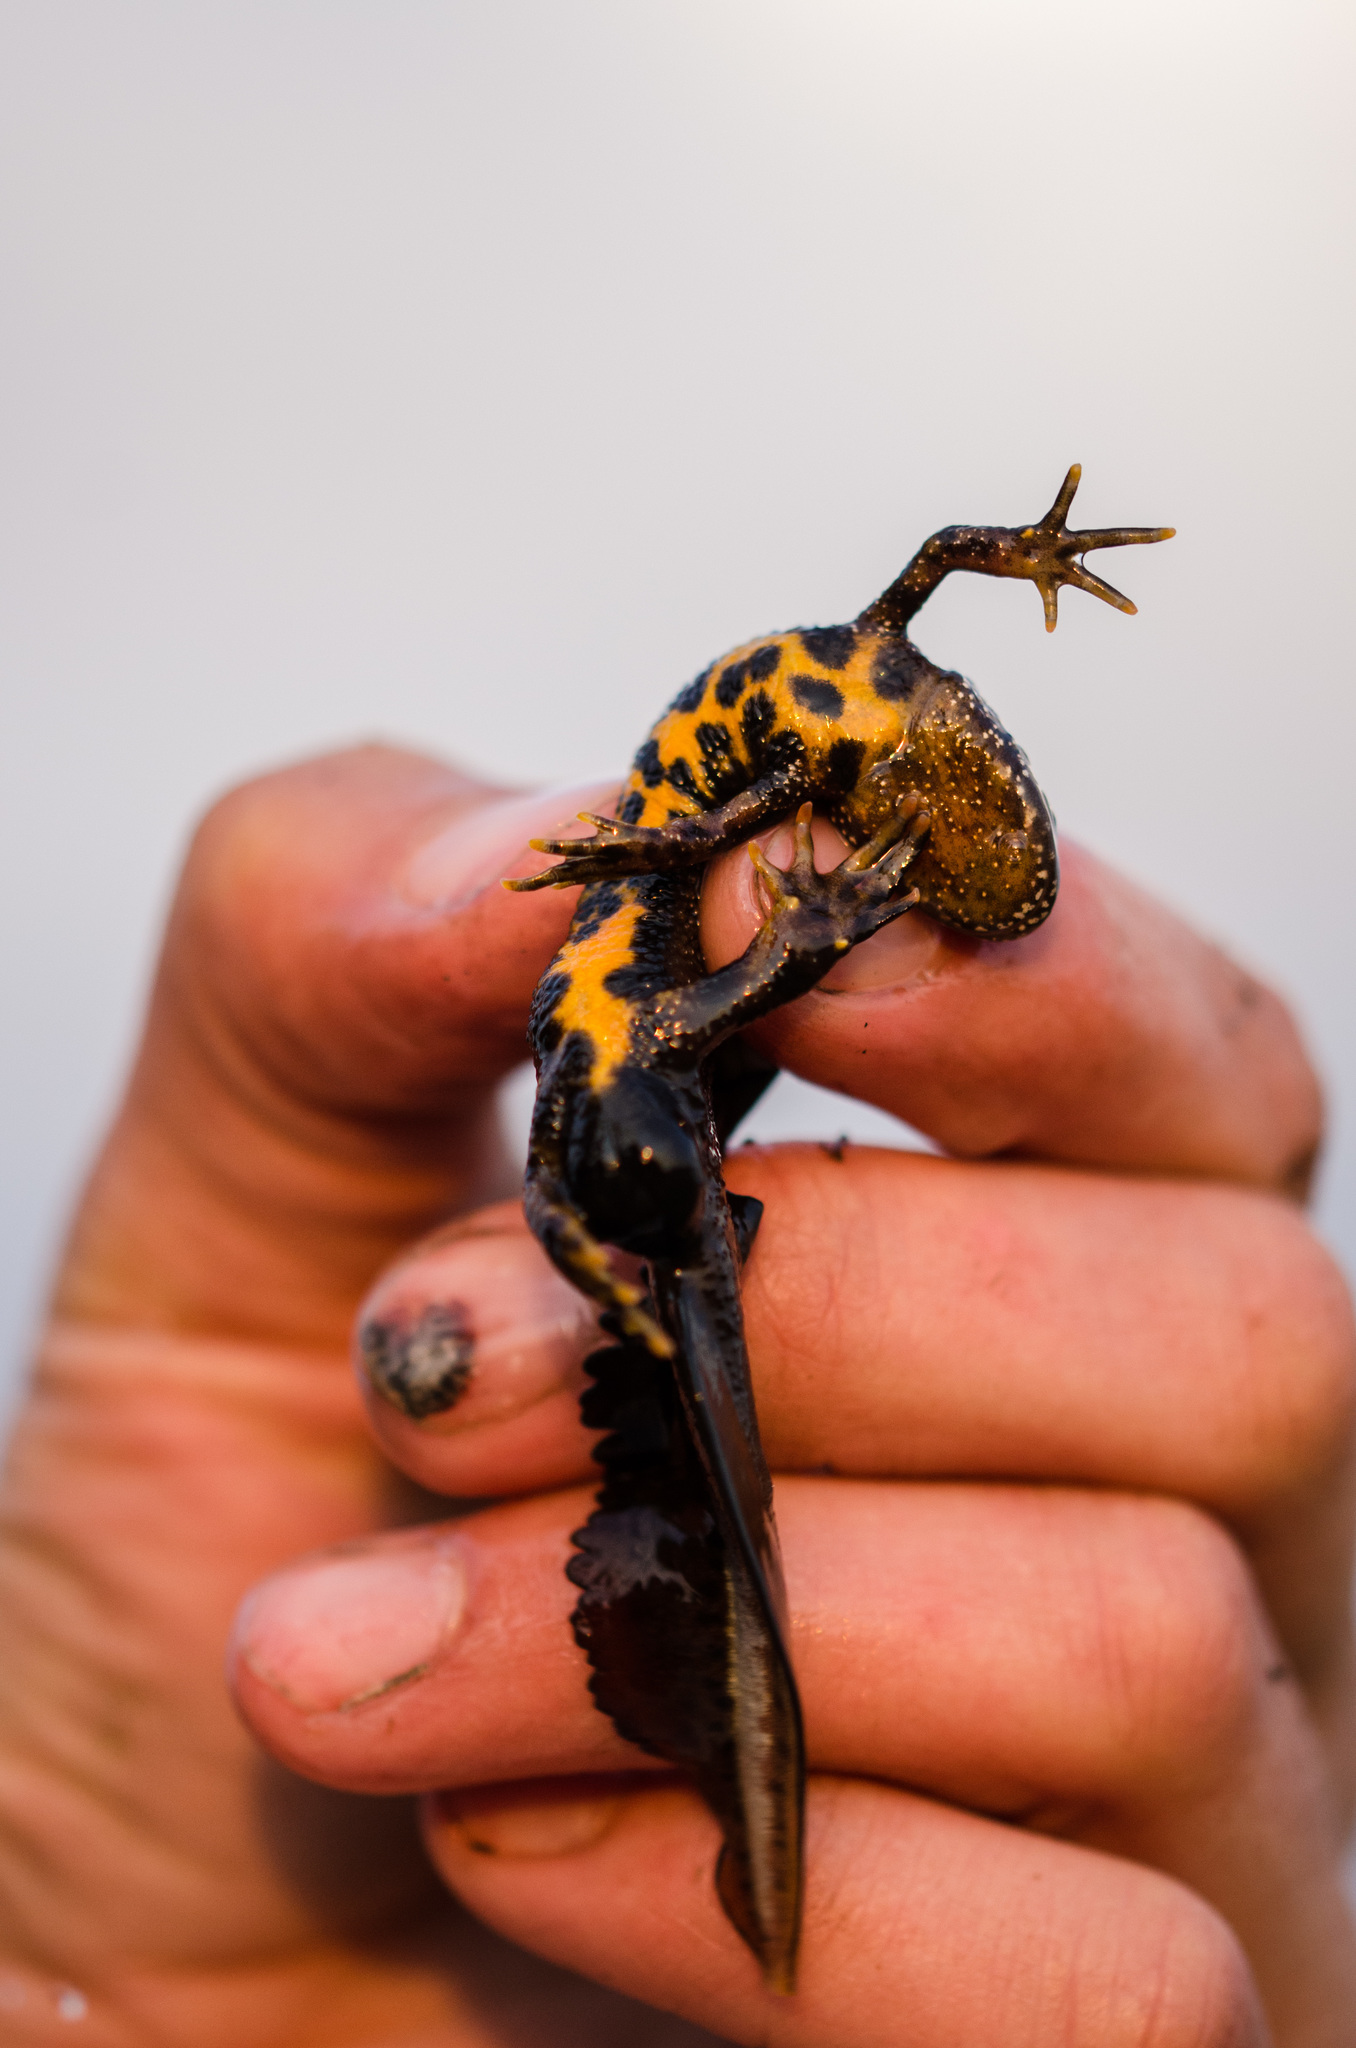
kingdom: Animalia
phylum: Chordata
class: Amphibia
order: Caudata
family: Salamandridae
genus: Triturus
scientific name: Triturus cristatus
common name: Crested newt
